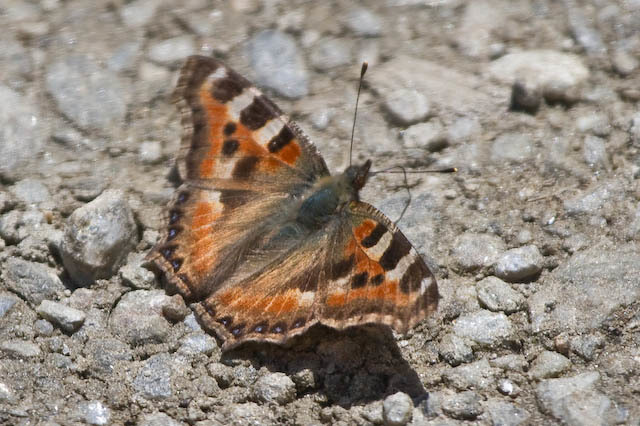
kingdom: Animalia
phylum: Arthropoda
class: Insecta
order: Lepidoptera
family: Nymphalidae
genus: Aglais
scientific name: Aglais caschmirensis
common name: Indian tortoiseshell
